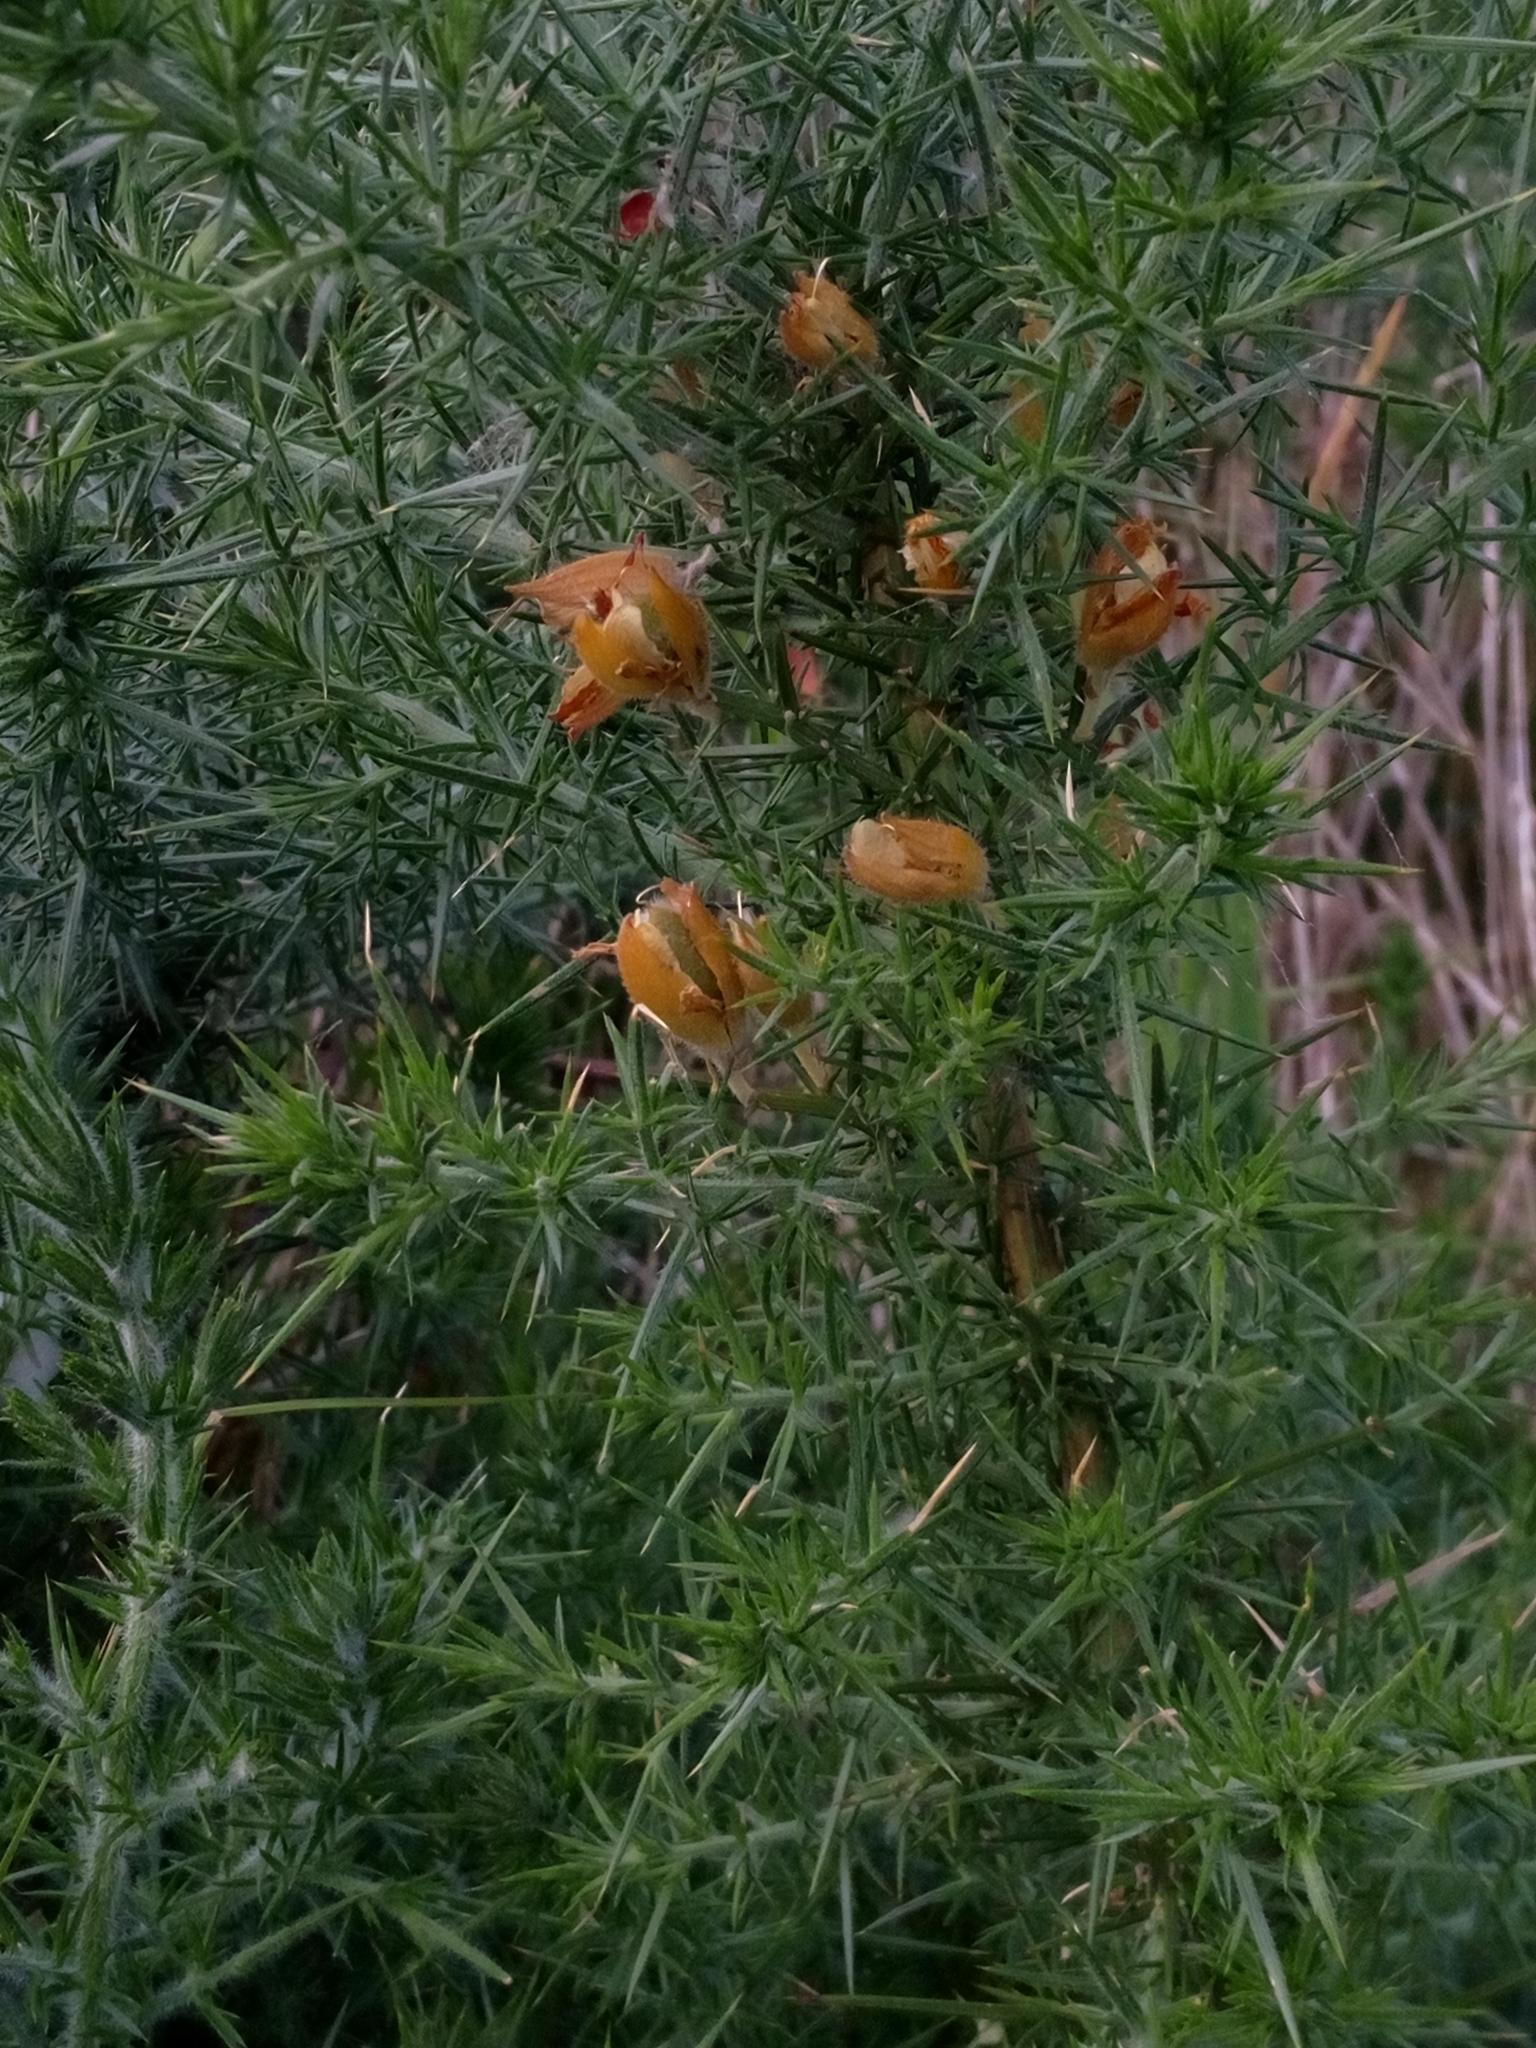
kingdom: Plantae
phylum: Tracheophyta
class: Magnoliopsida
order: Fabales
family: Fabaceae
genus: Ulex
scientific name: Ulex europaeus
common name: Common gorse
